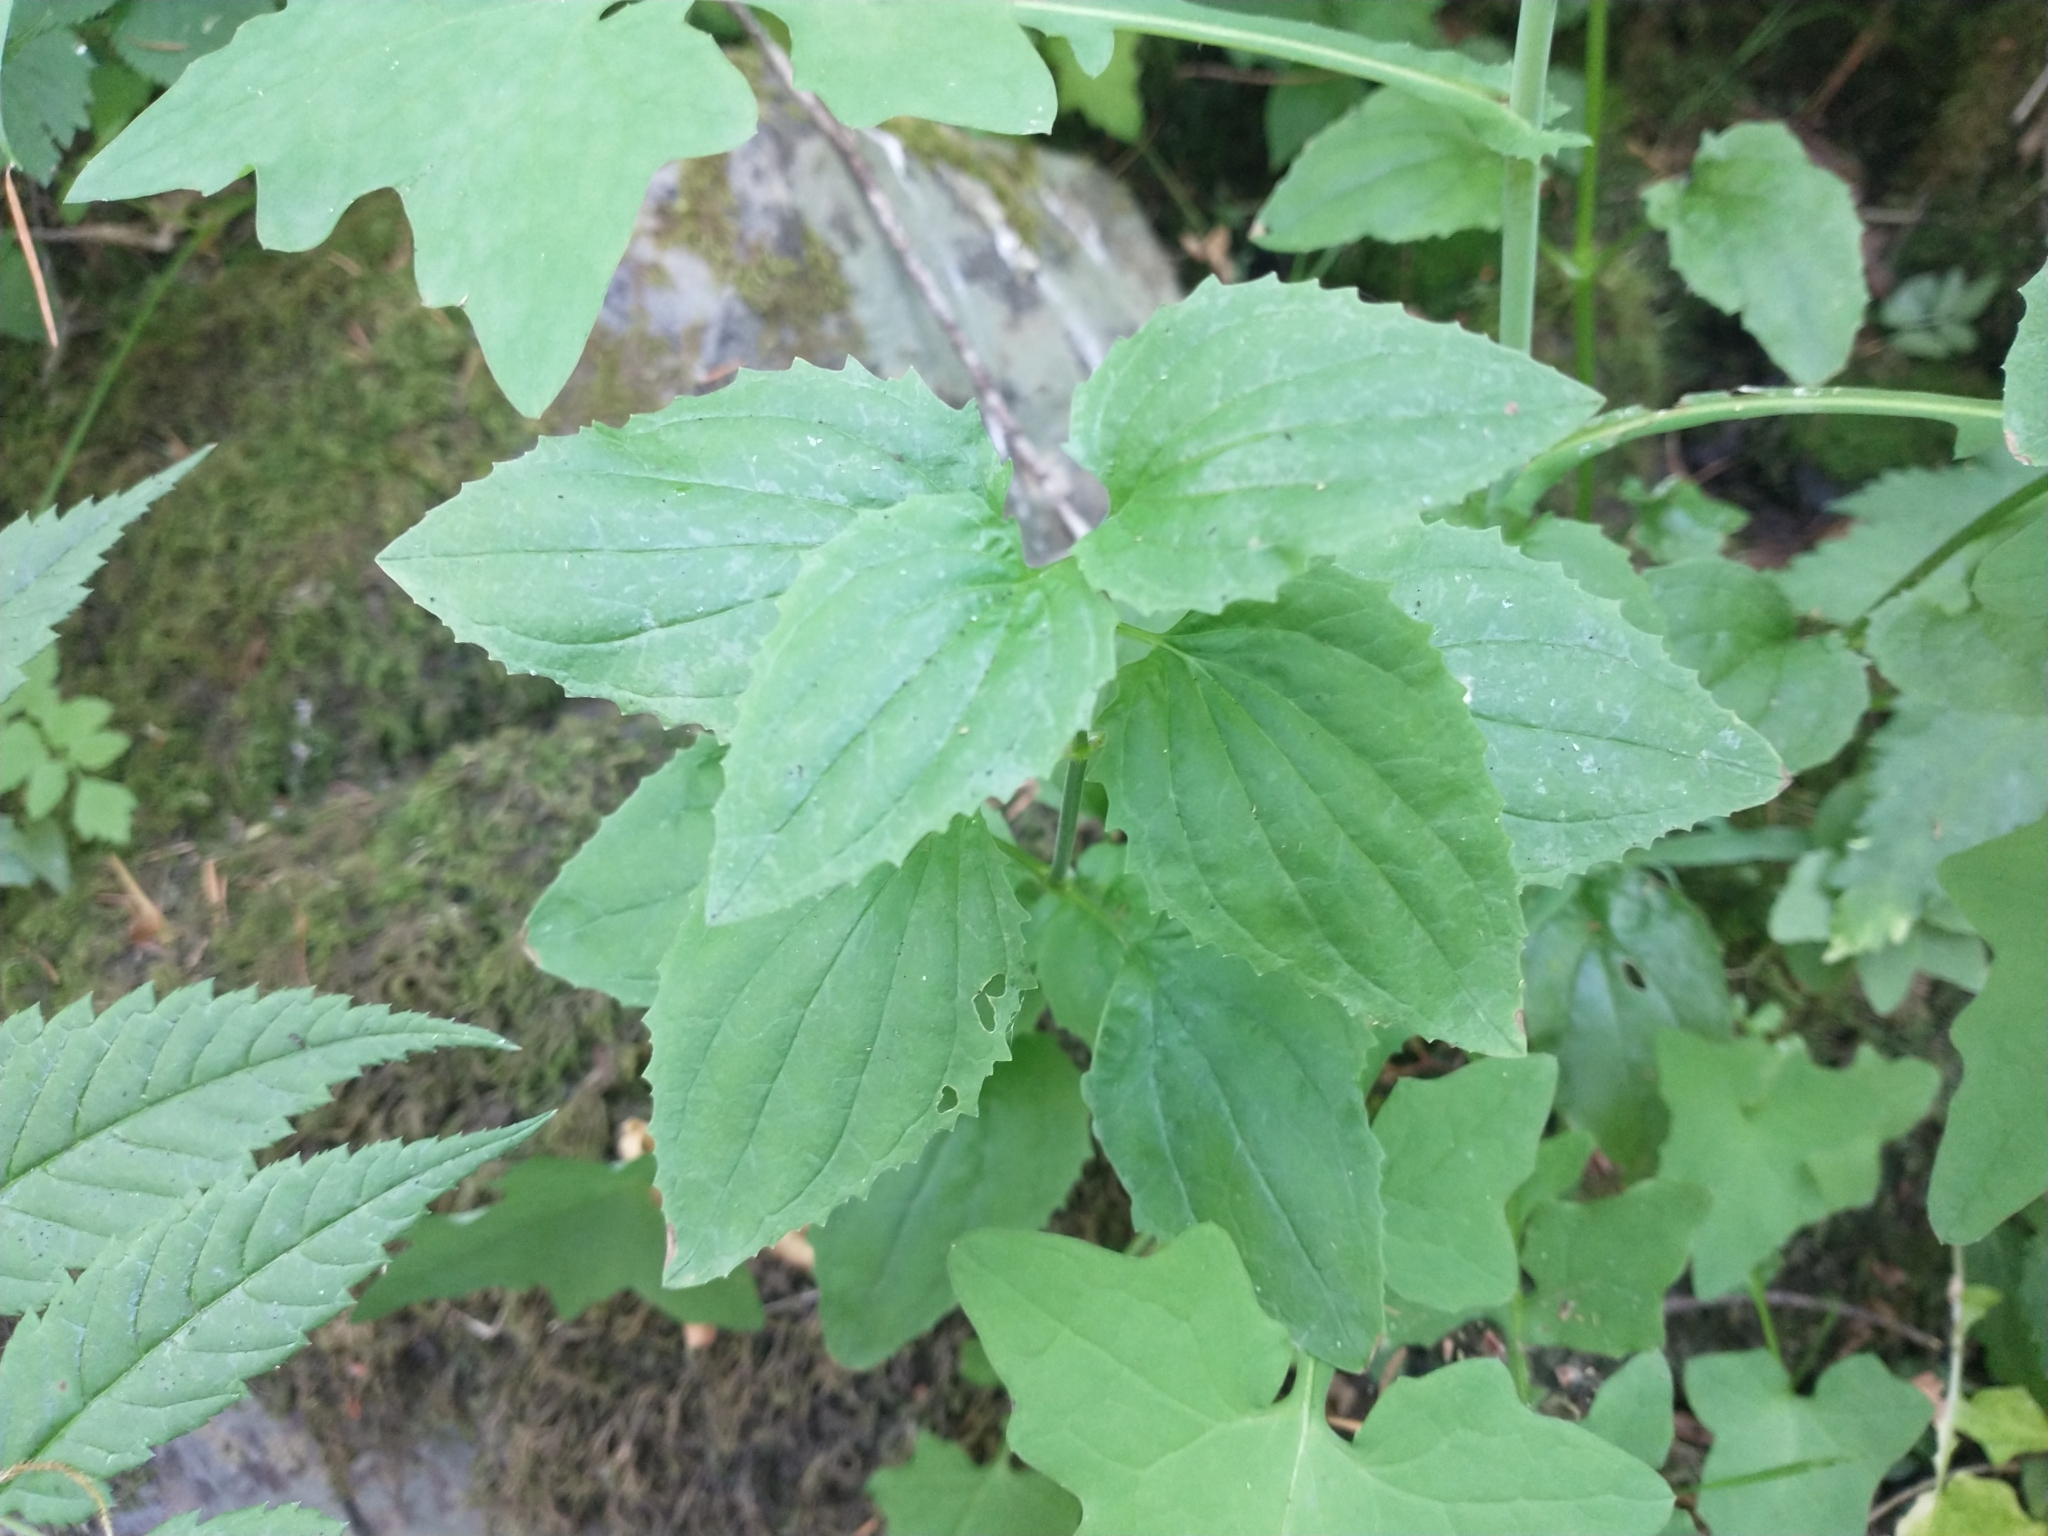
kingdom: Plantae
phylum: Tracheophyta
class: Magnoliopsida
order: Lamiales
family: Phrymaceae
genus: Erythranthe
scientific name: Erythranthe decora
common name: Mannered monkeyflower
